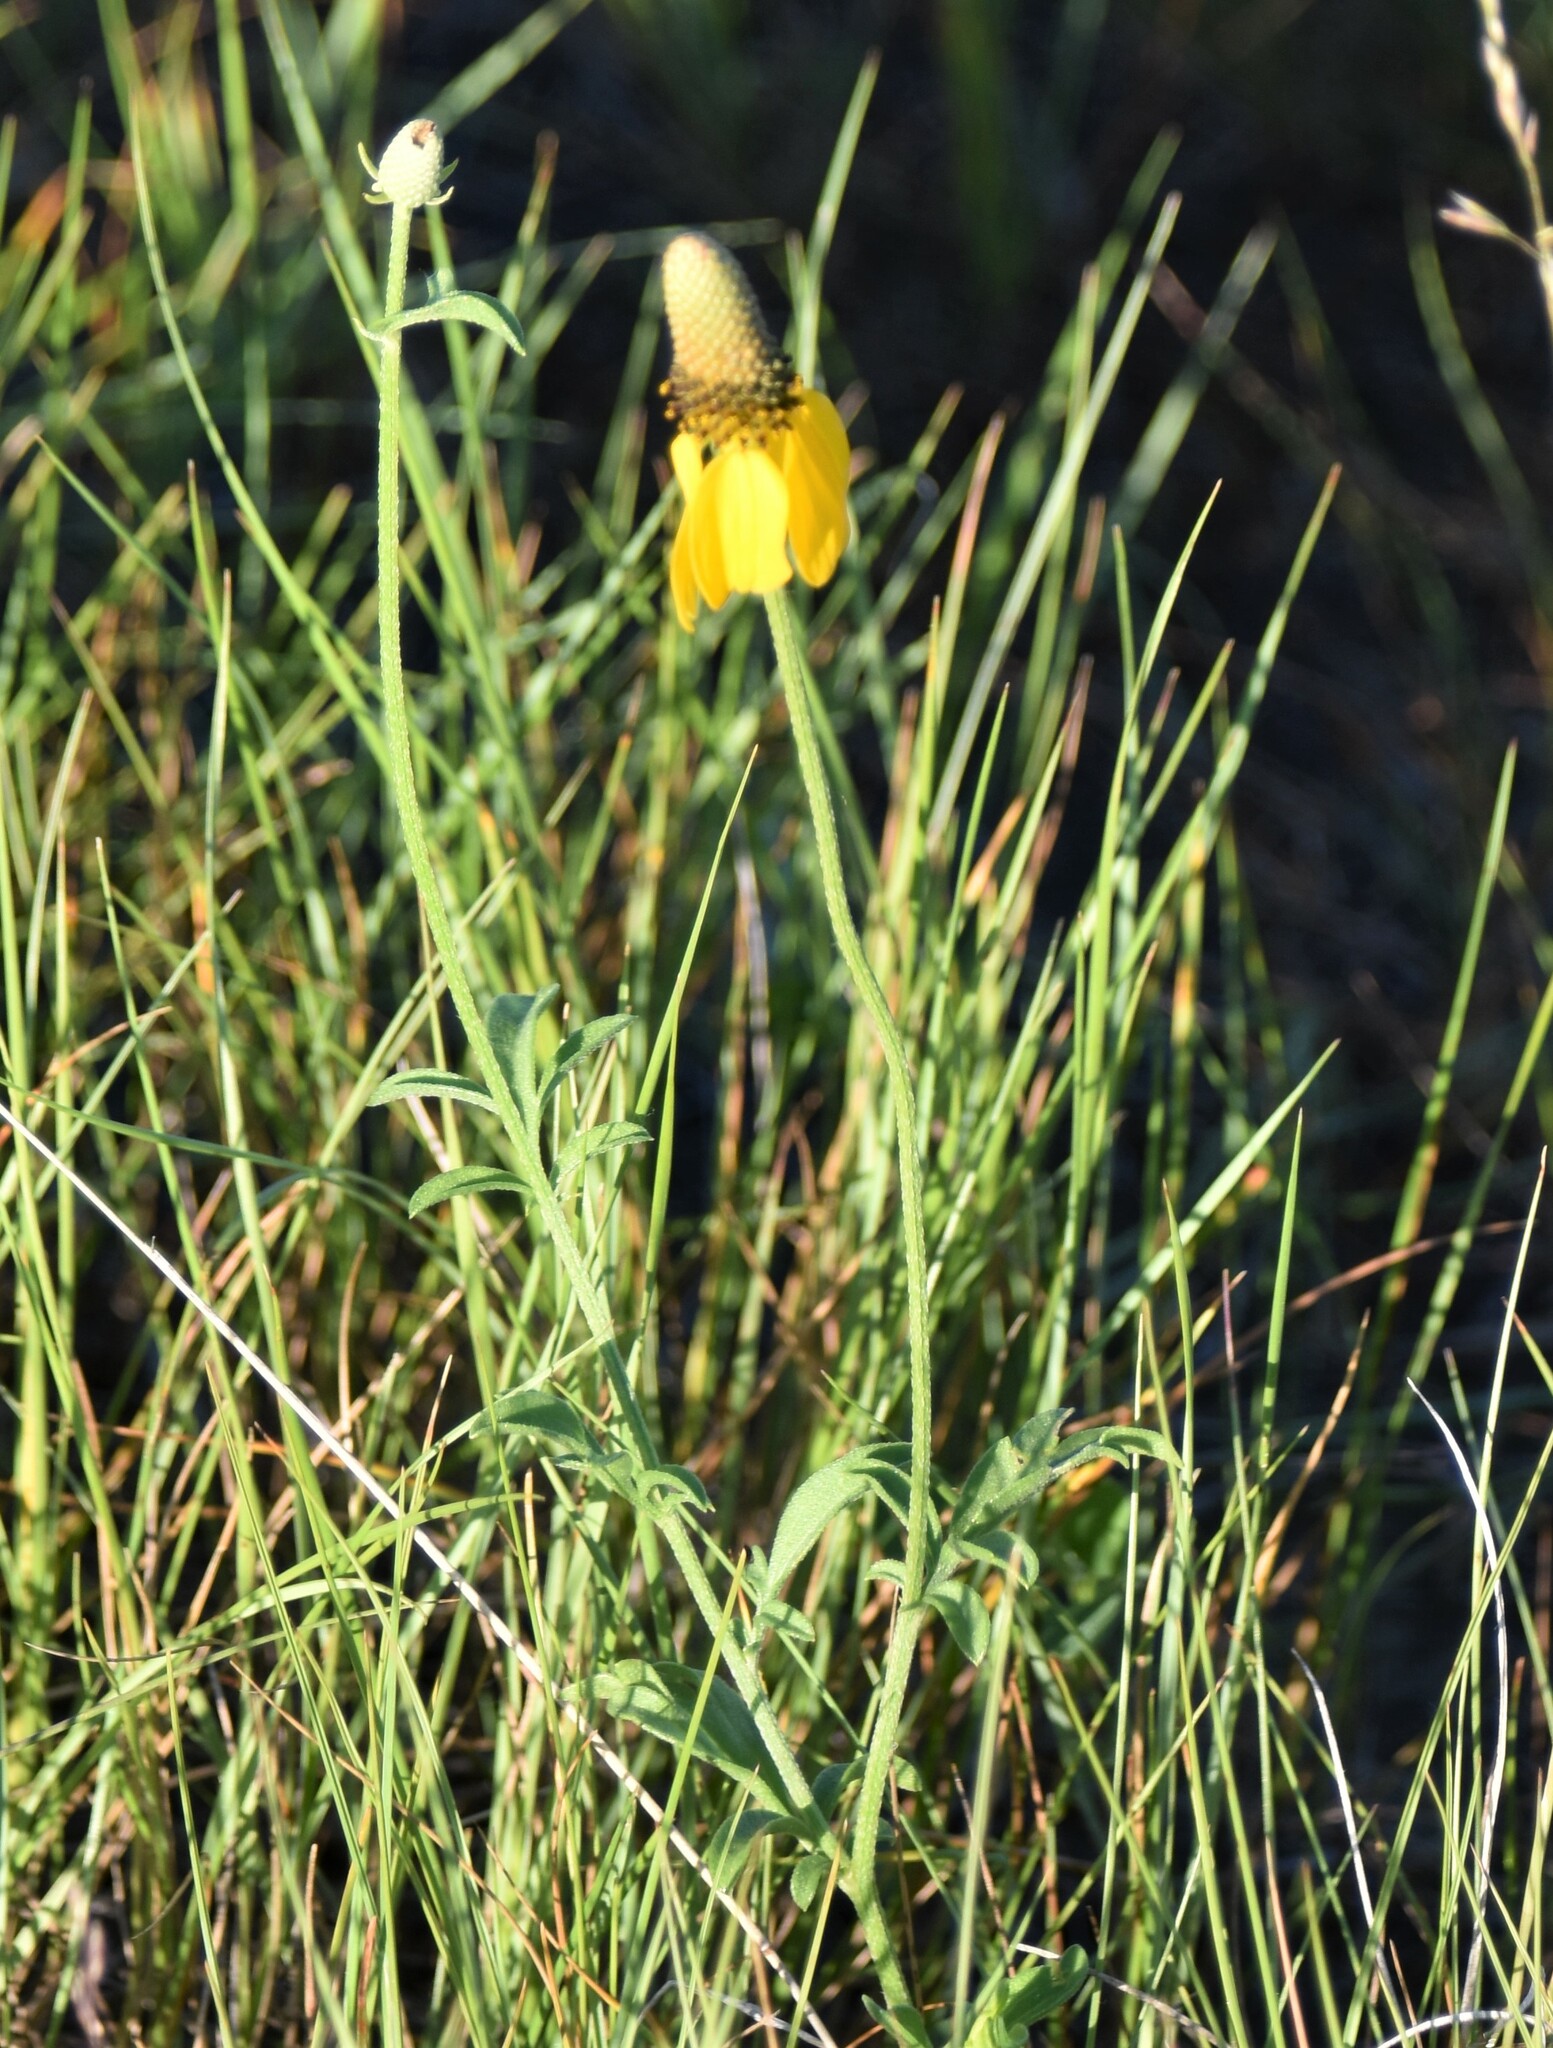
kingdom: Plantae
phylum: Tracheophyta
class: Magnoliopsida
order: Asterales
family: Asteraceae
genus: Ratibida
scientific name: Ratibida columnifera
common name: Prairie coneflower
